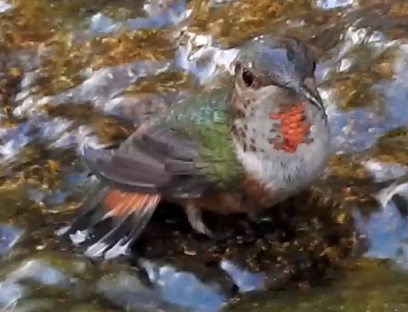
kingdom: Animalia
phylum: Chordata
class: Aves
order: Apodiformes
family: Trochilidae
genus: Selasphorus
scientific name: Selasphorus sasin
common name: Allen's hummingbird
